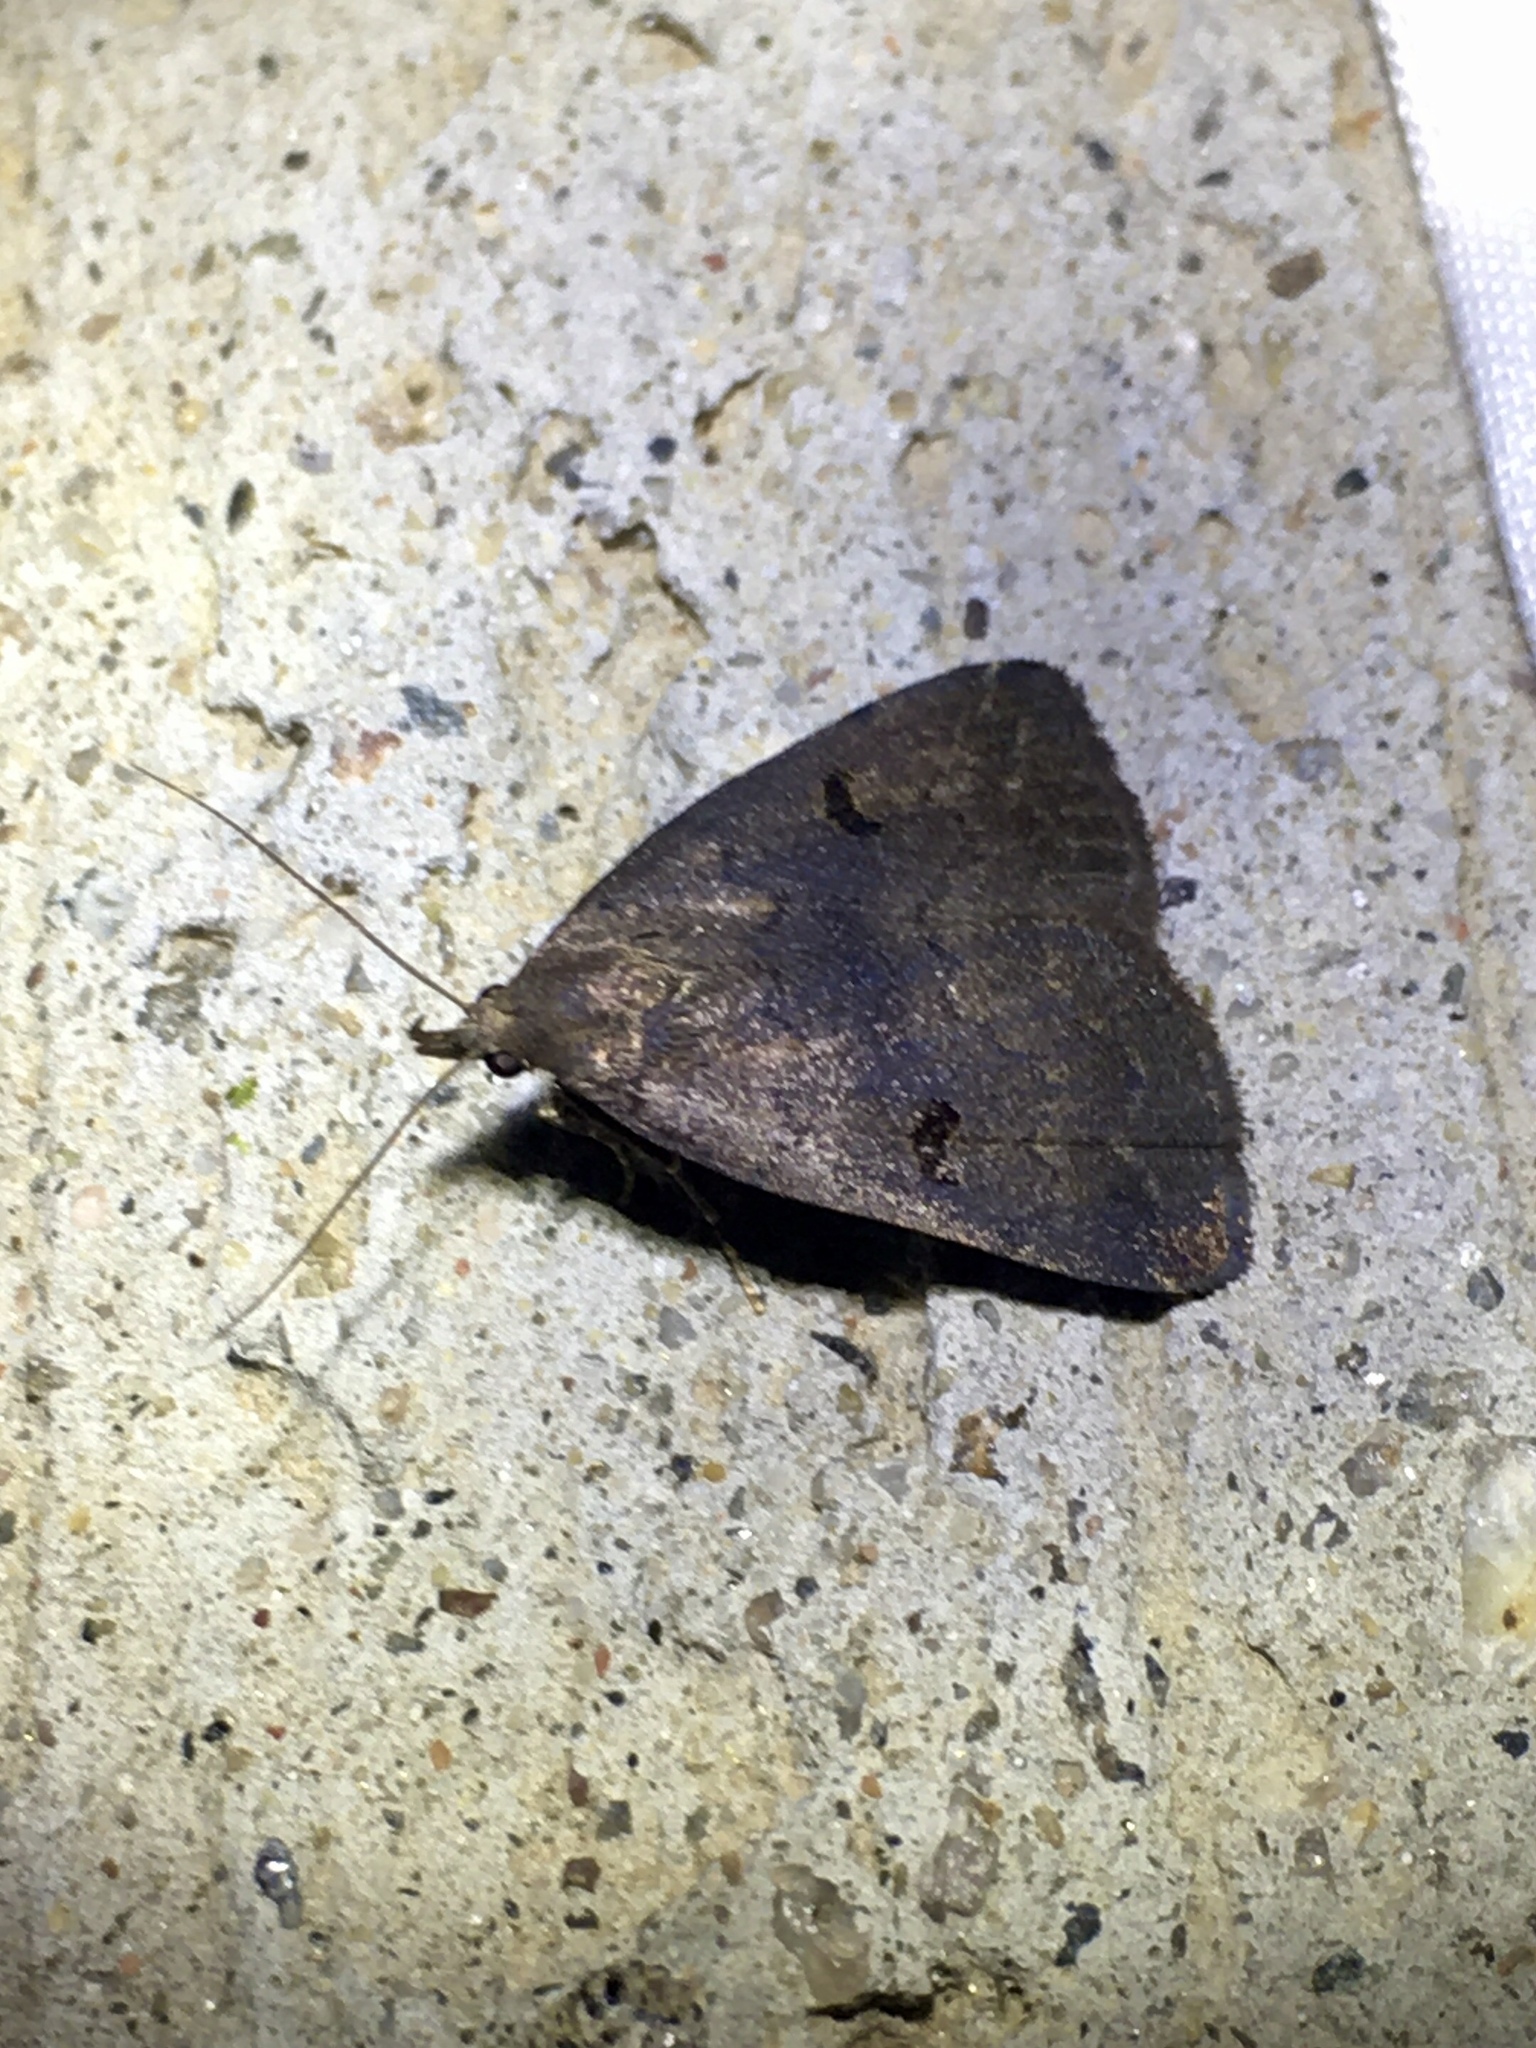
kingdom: Animalia
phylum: Arthropoda
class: Insecta
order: Lepidoptera
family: Erebidae
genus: Phalaenostola
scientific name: Phalaenostola hanhami
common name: Hanham's owlet
